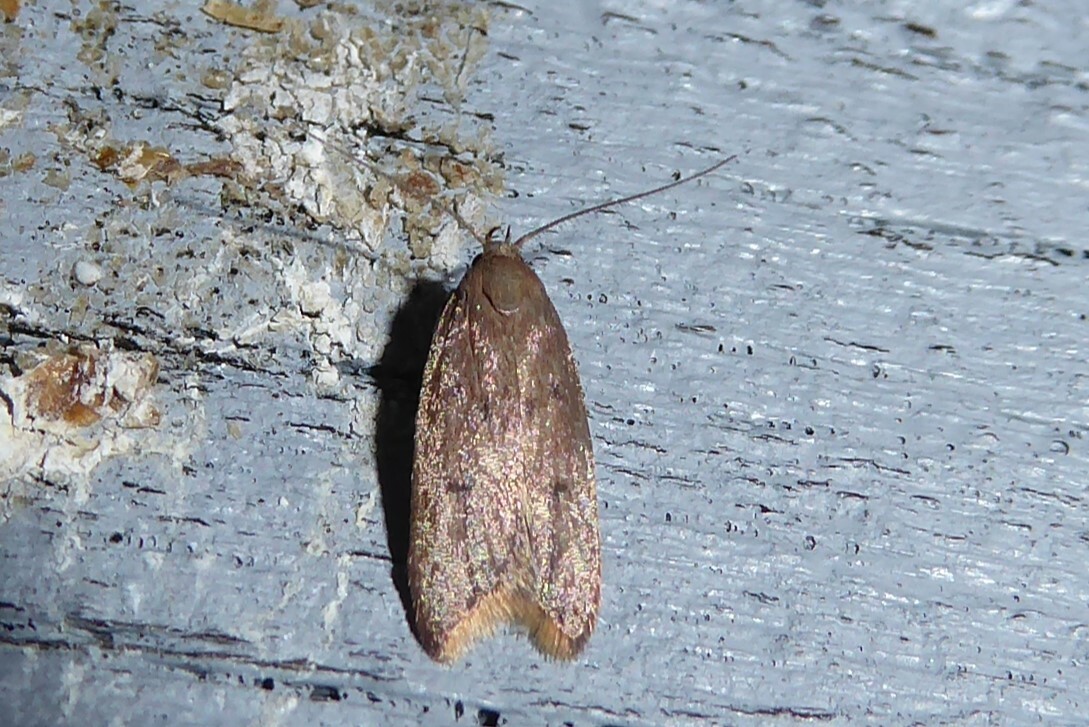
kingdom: Animalia
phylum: Arthropoda
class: Insecta
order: Lepidoptera
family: Oecophoridae
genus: Tachystola
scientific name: Tachystola acroxantha
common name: Ruddy streak
